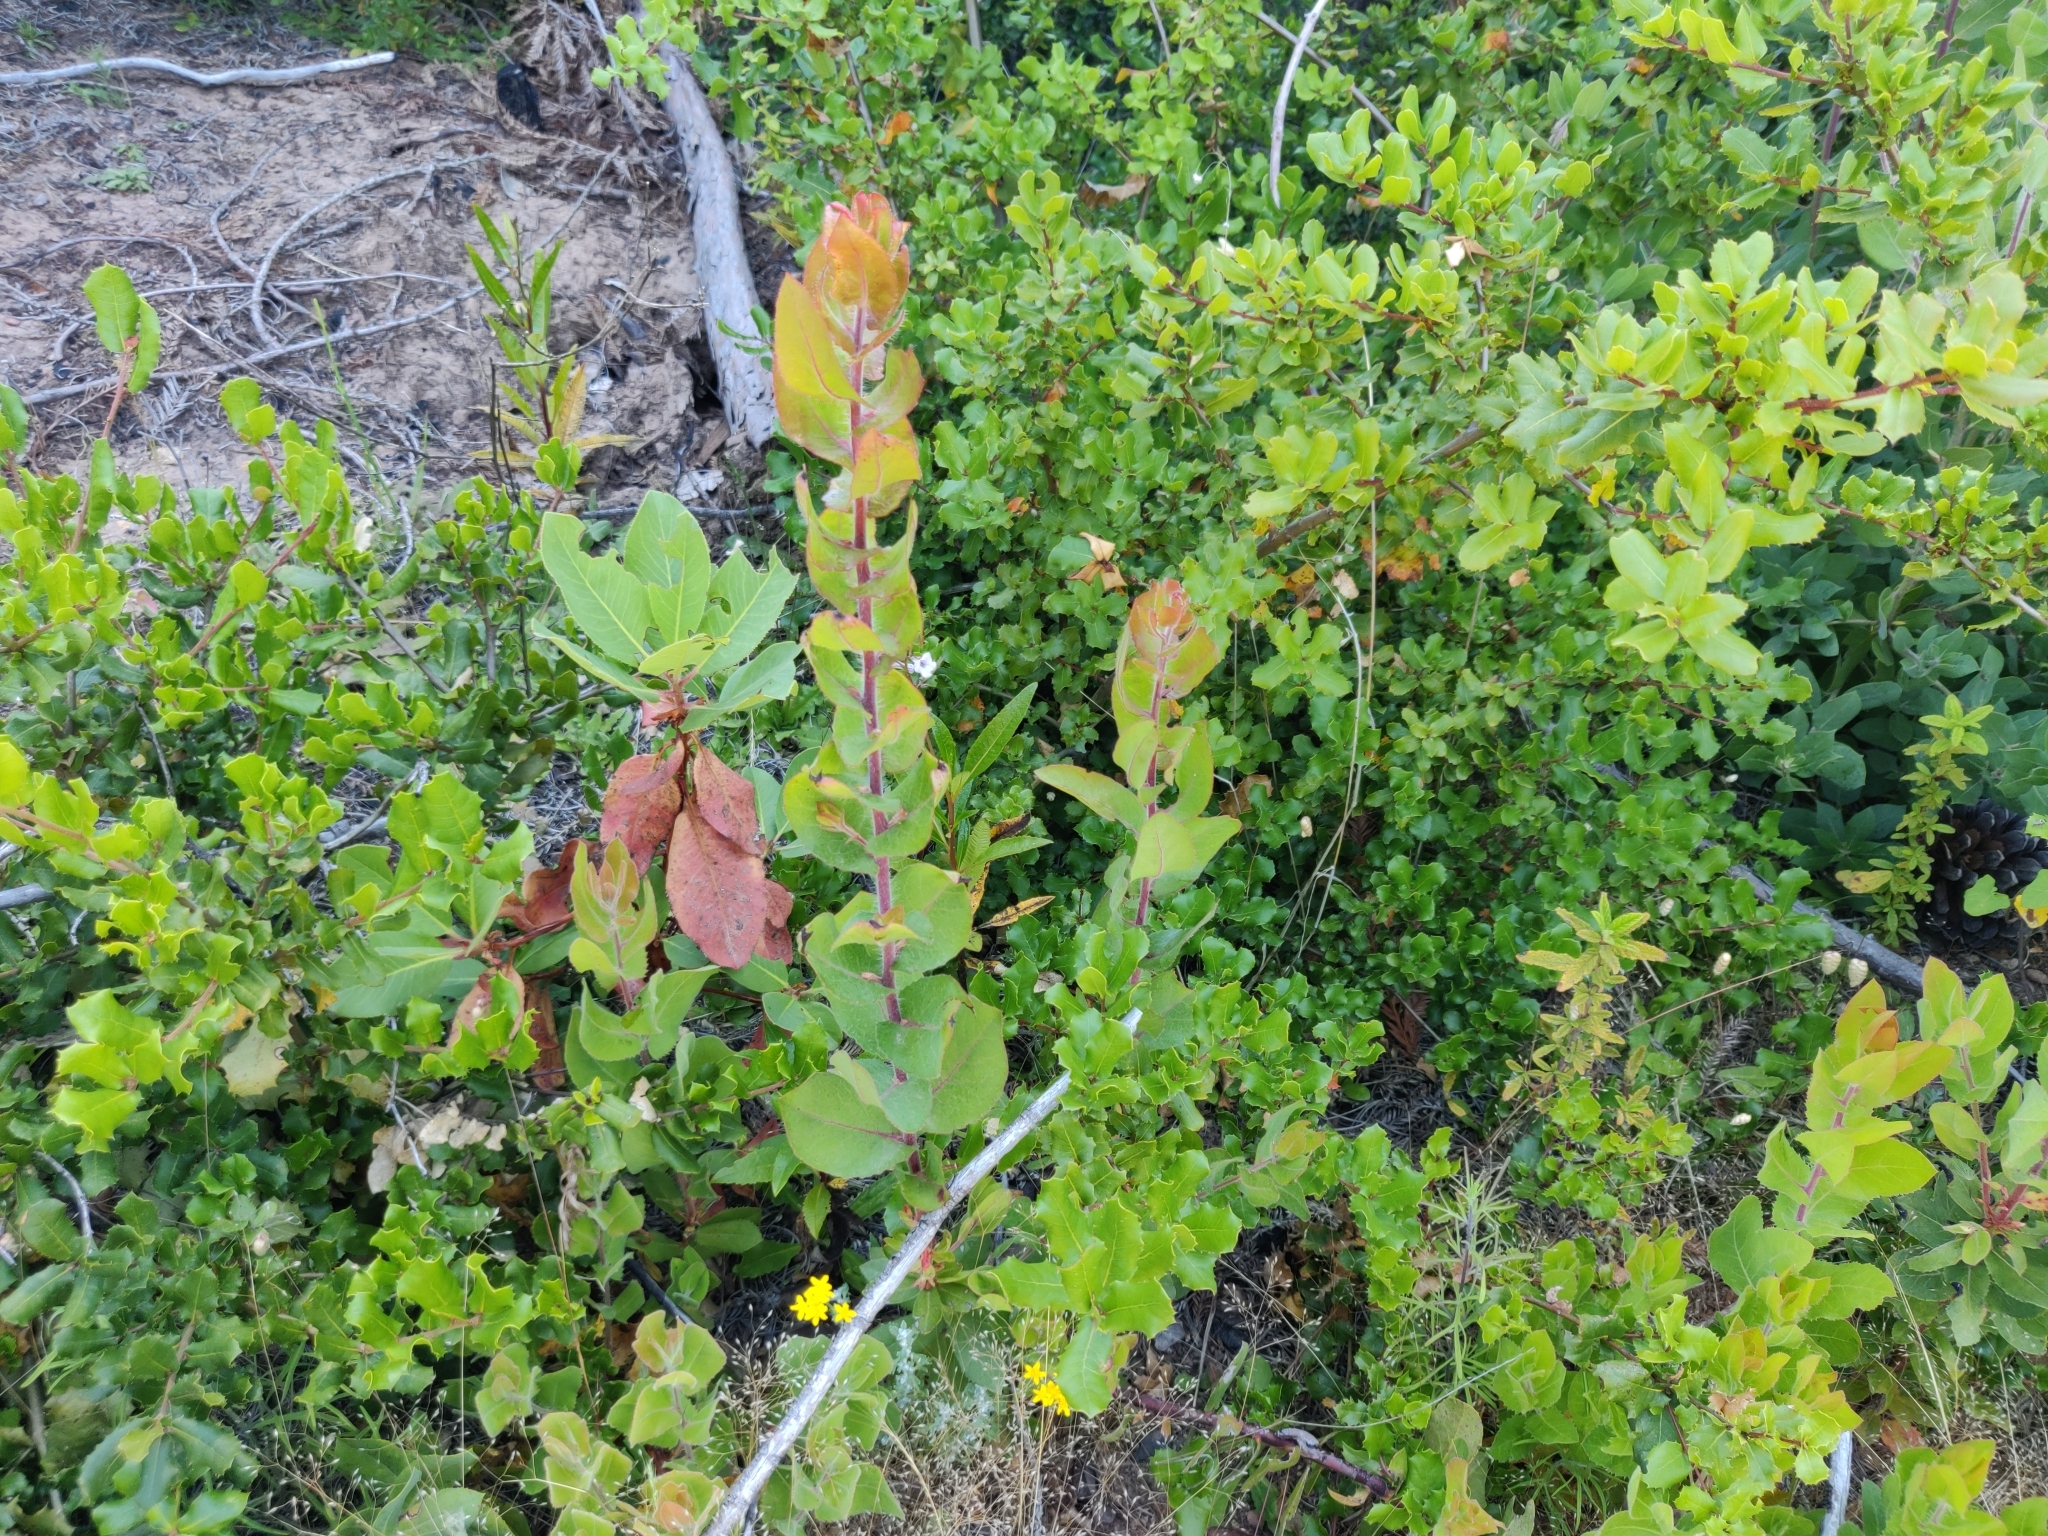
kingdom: Plantae
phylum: Tracheophyta
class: Magnoliopsida
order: Ericales
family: Ericaceae
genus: Arctostaphylos
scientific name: Arctostaphylos andersonii
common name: Santa cruz manzanita
